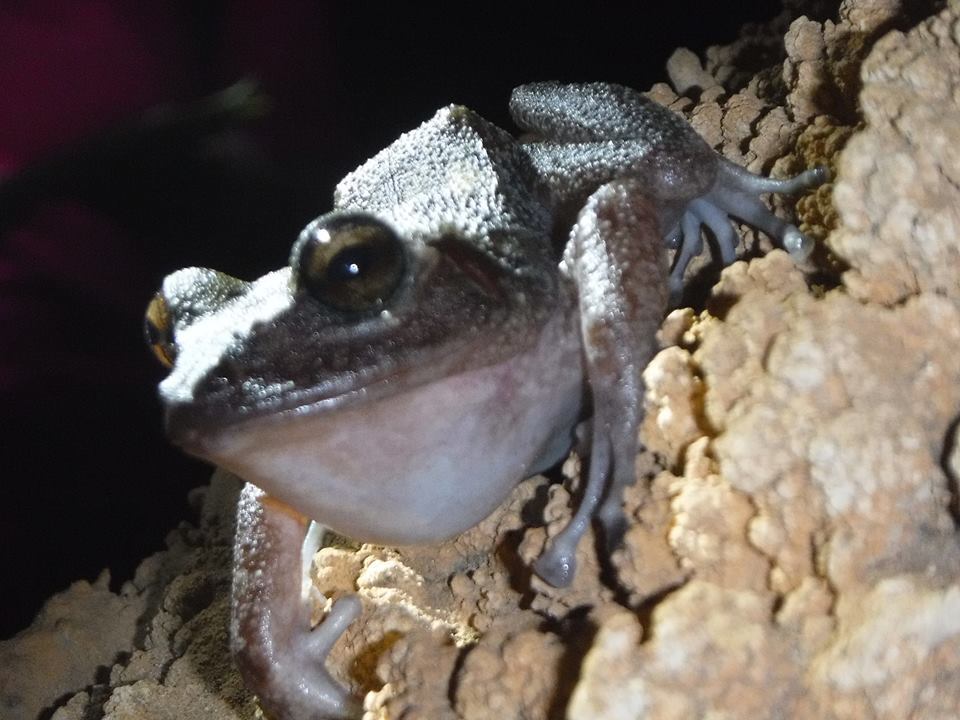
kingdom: Animalia
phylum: Chordata
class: Amphibia
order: Anura
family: Eleutherodactylidae
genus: Eleutherodactylus
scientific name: Eleutherodactylus zeus
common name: Cuban giant frog
